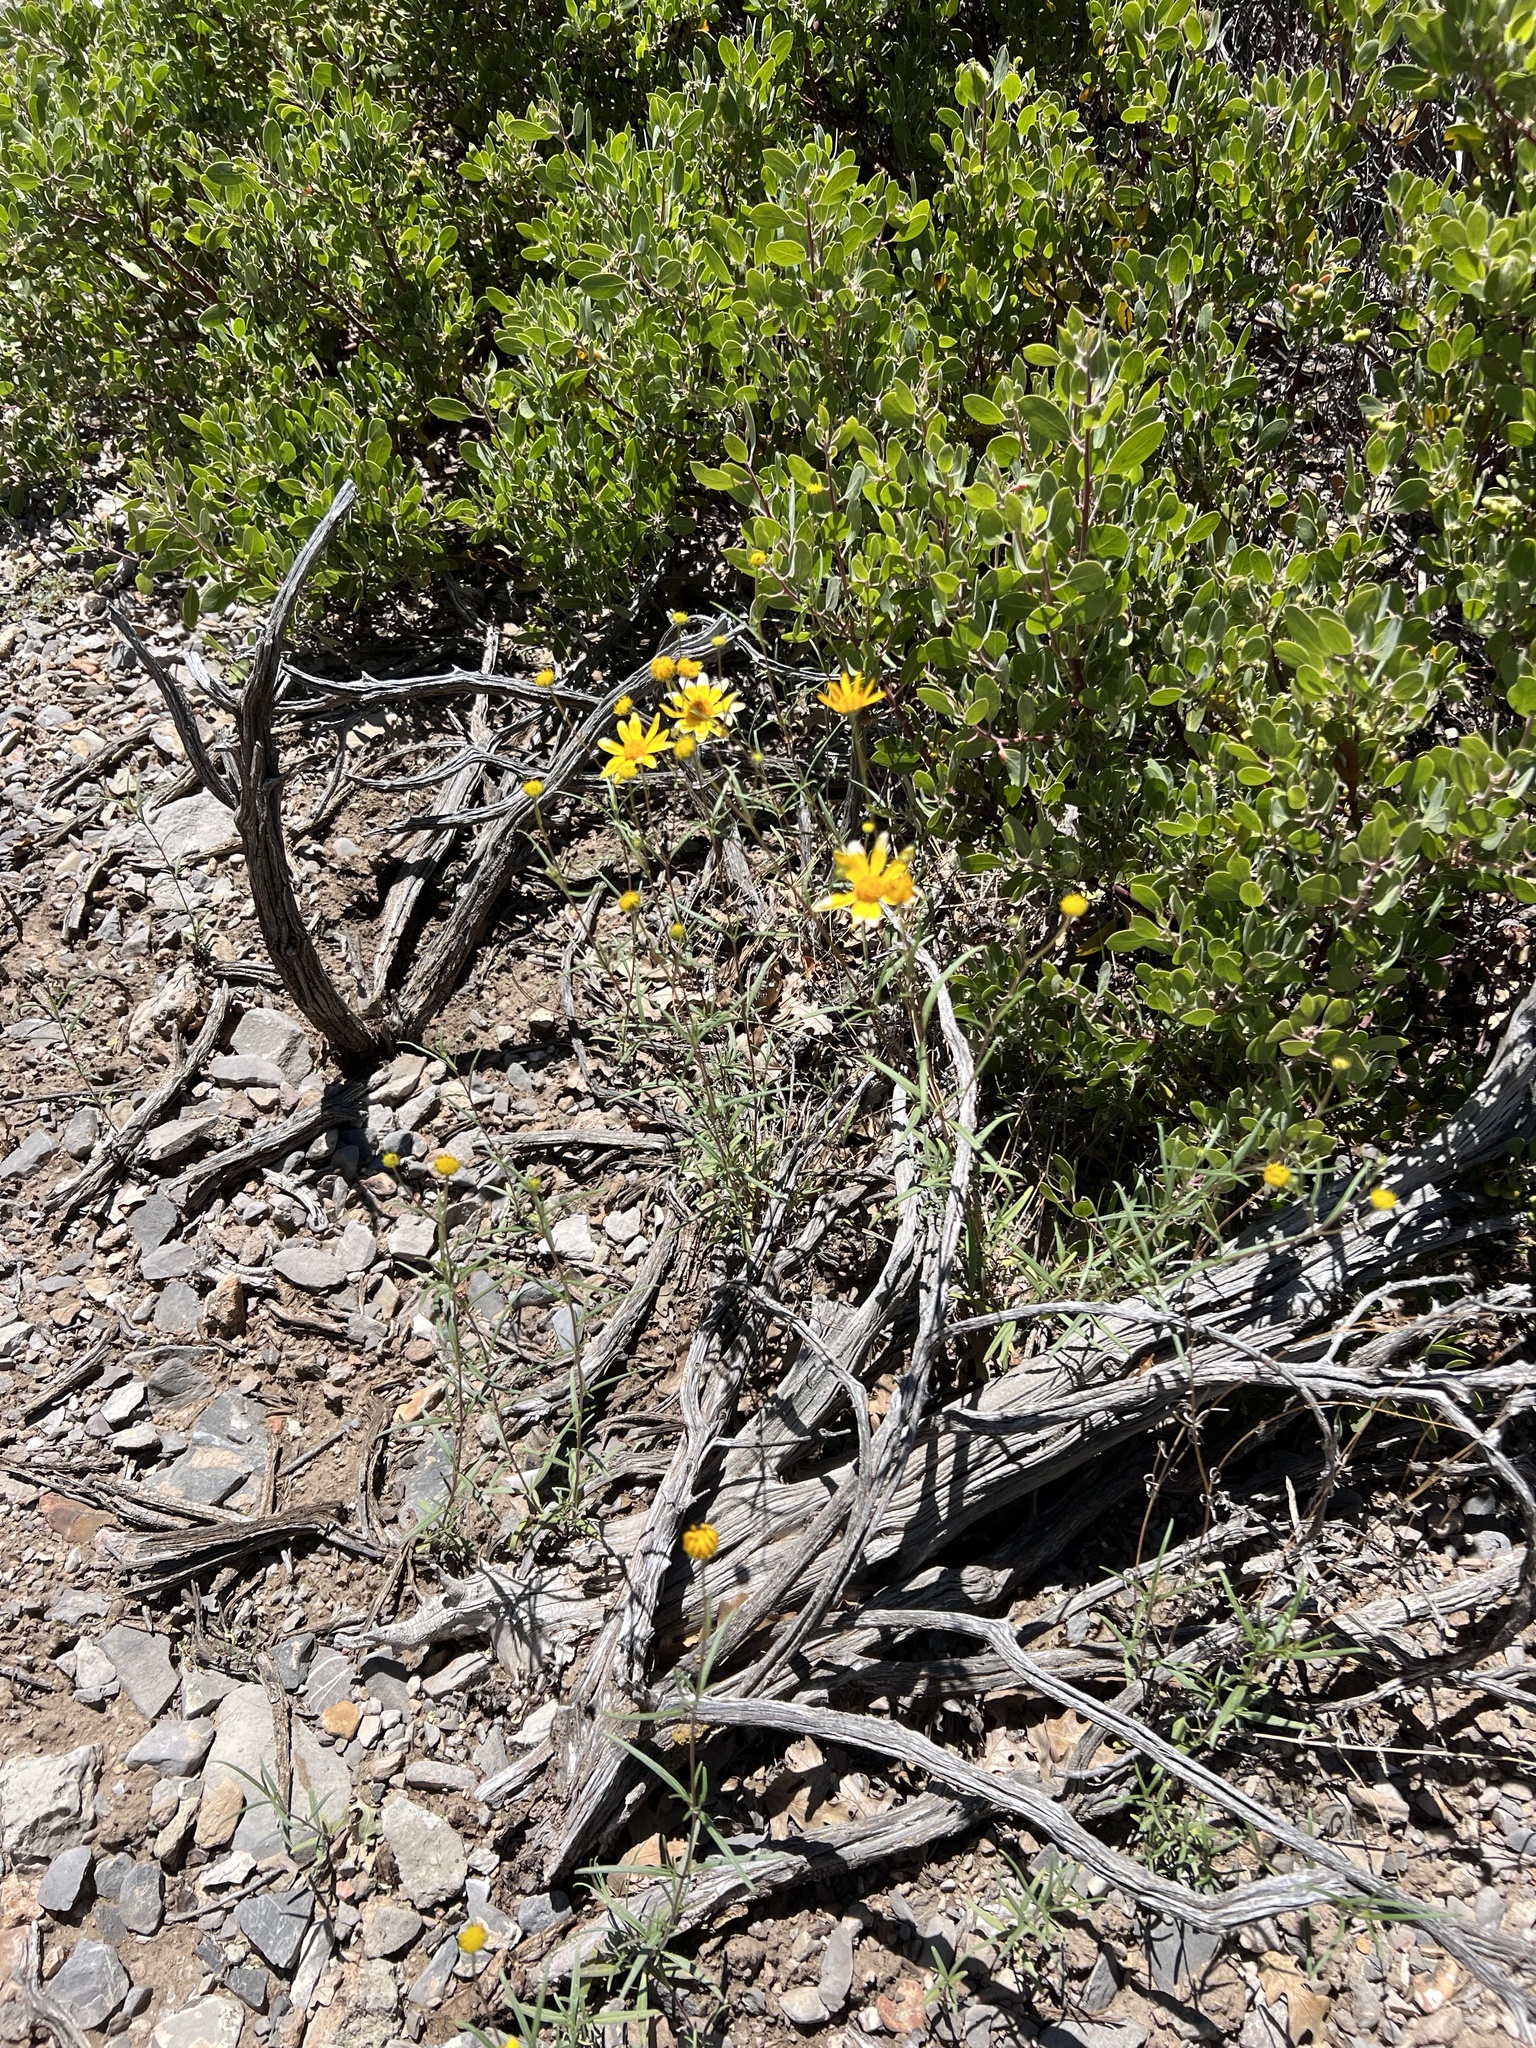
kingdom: Plantae
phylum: Tracheophyta
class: Magnoliopsida
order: Asterales
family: Asteraceae
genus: Heliomeris
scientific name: Heliomeris multiflora
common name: Showy goldeneye
